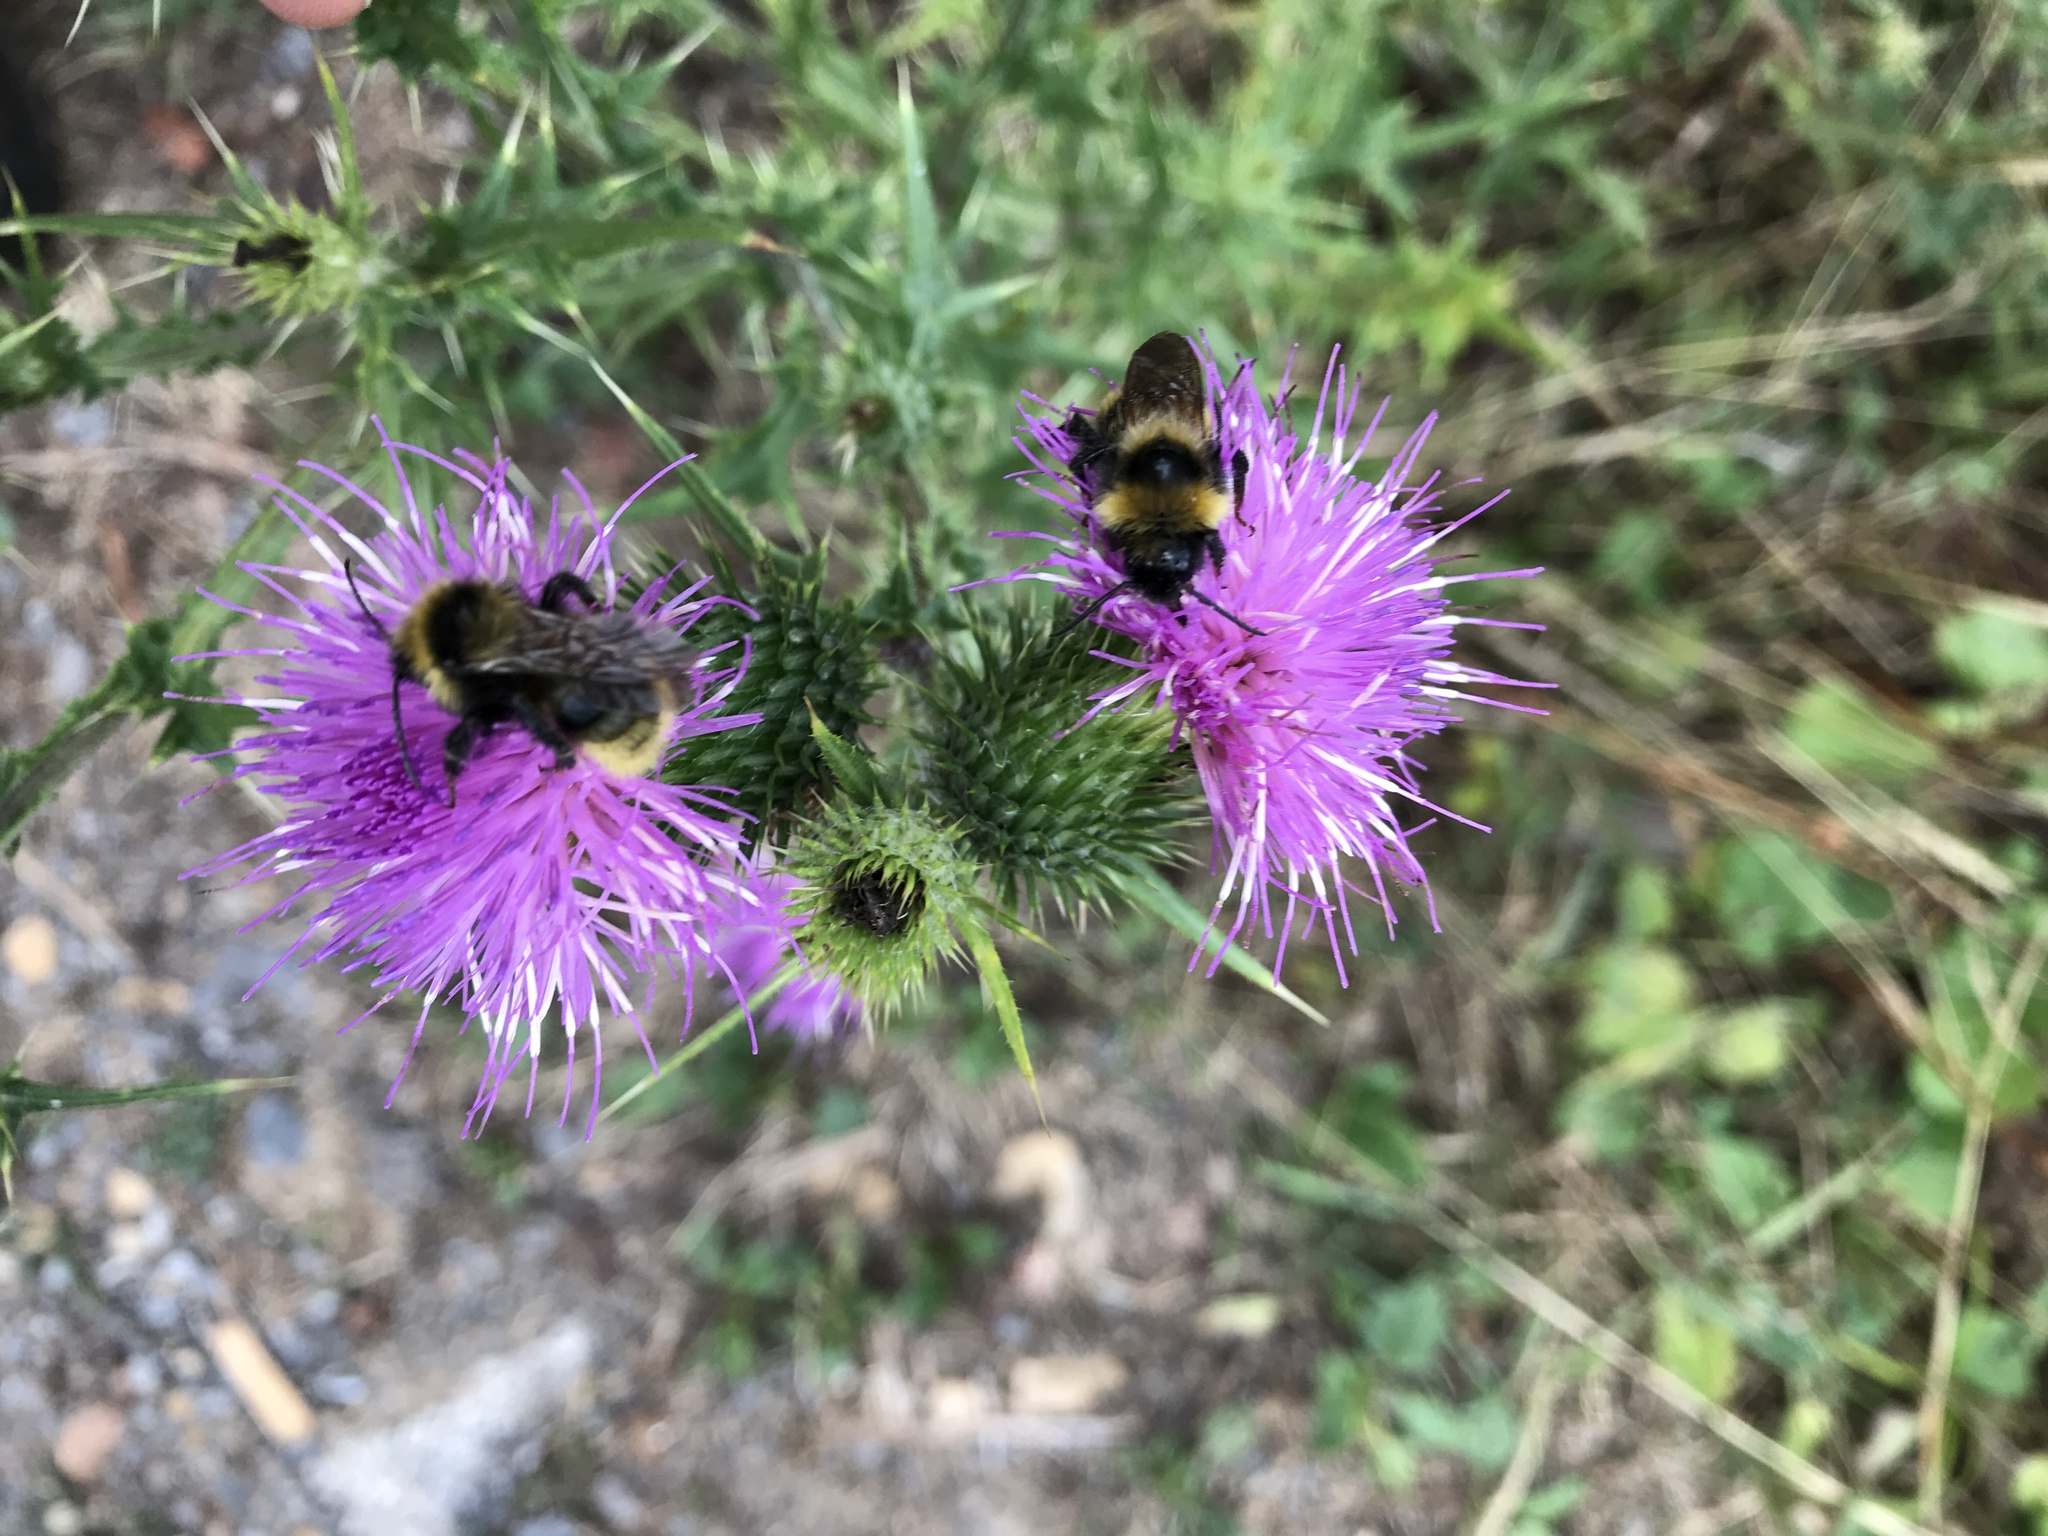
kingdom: Animalia
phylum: Arthropoda
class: Insecta
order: Hymenoptera
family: Apidae
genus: Bombus
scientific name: Bombus campestris
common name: Field cuckoo-bee
